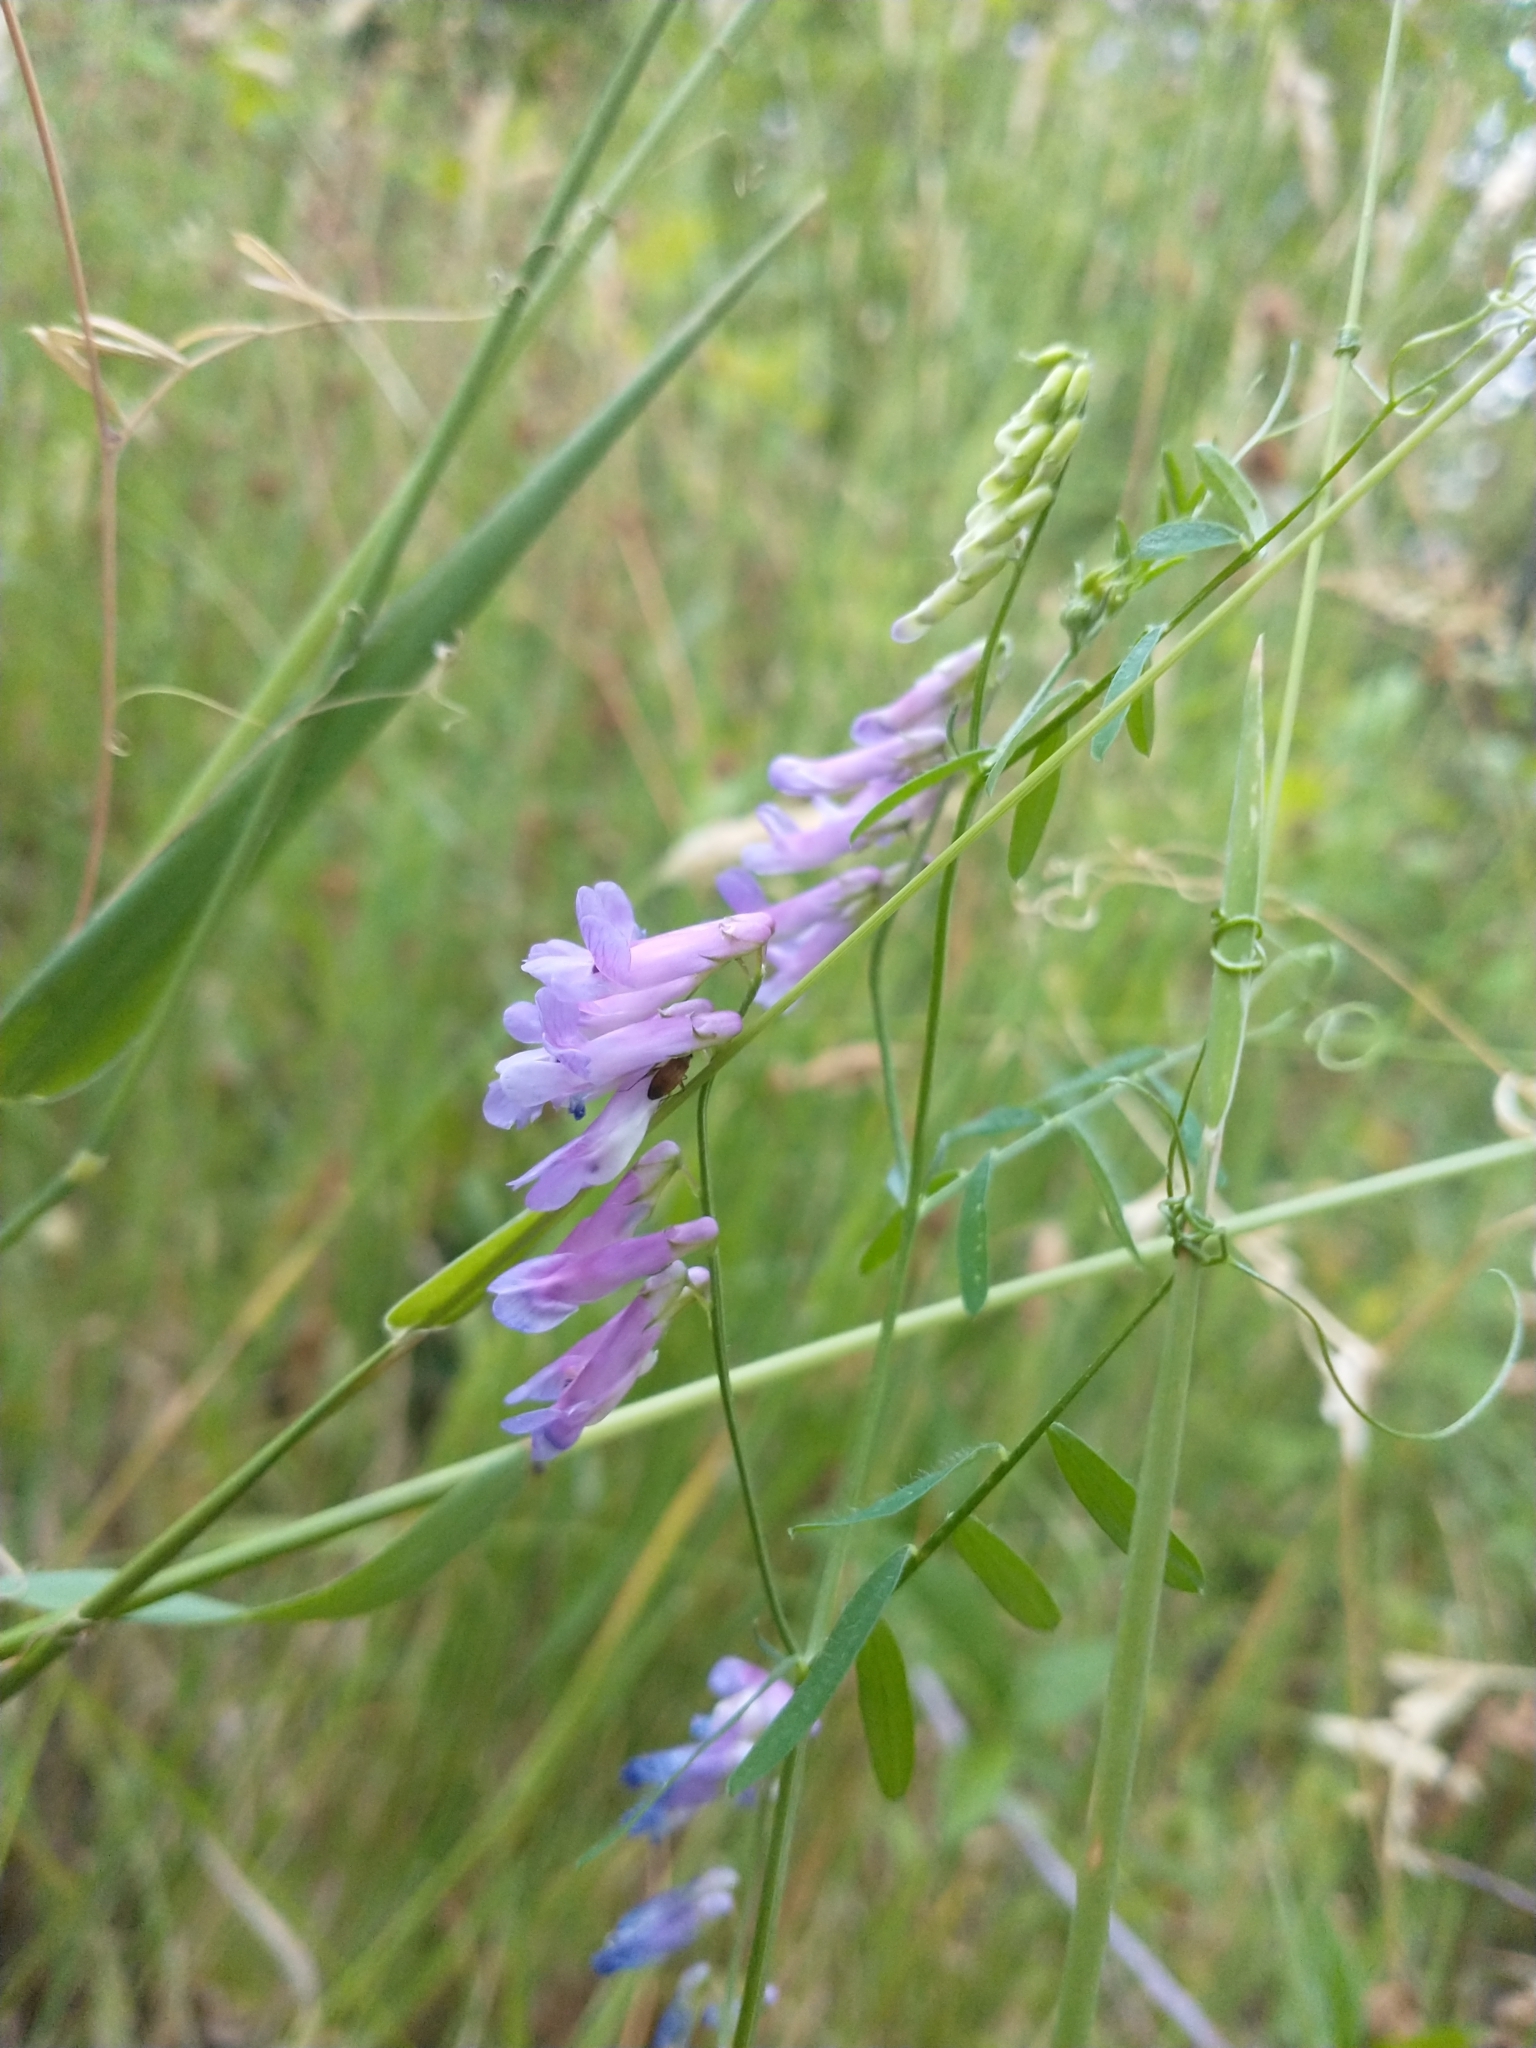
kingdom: Plantae
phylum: Tracheophyta
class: Magnoliopsida
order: Fabales
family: Fabaceae
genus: Vicia
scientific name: Vicia villosa
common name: Fodder vetch
